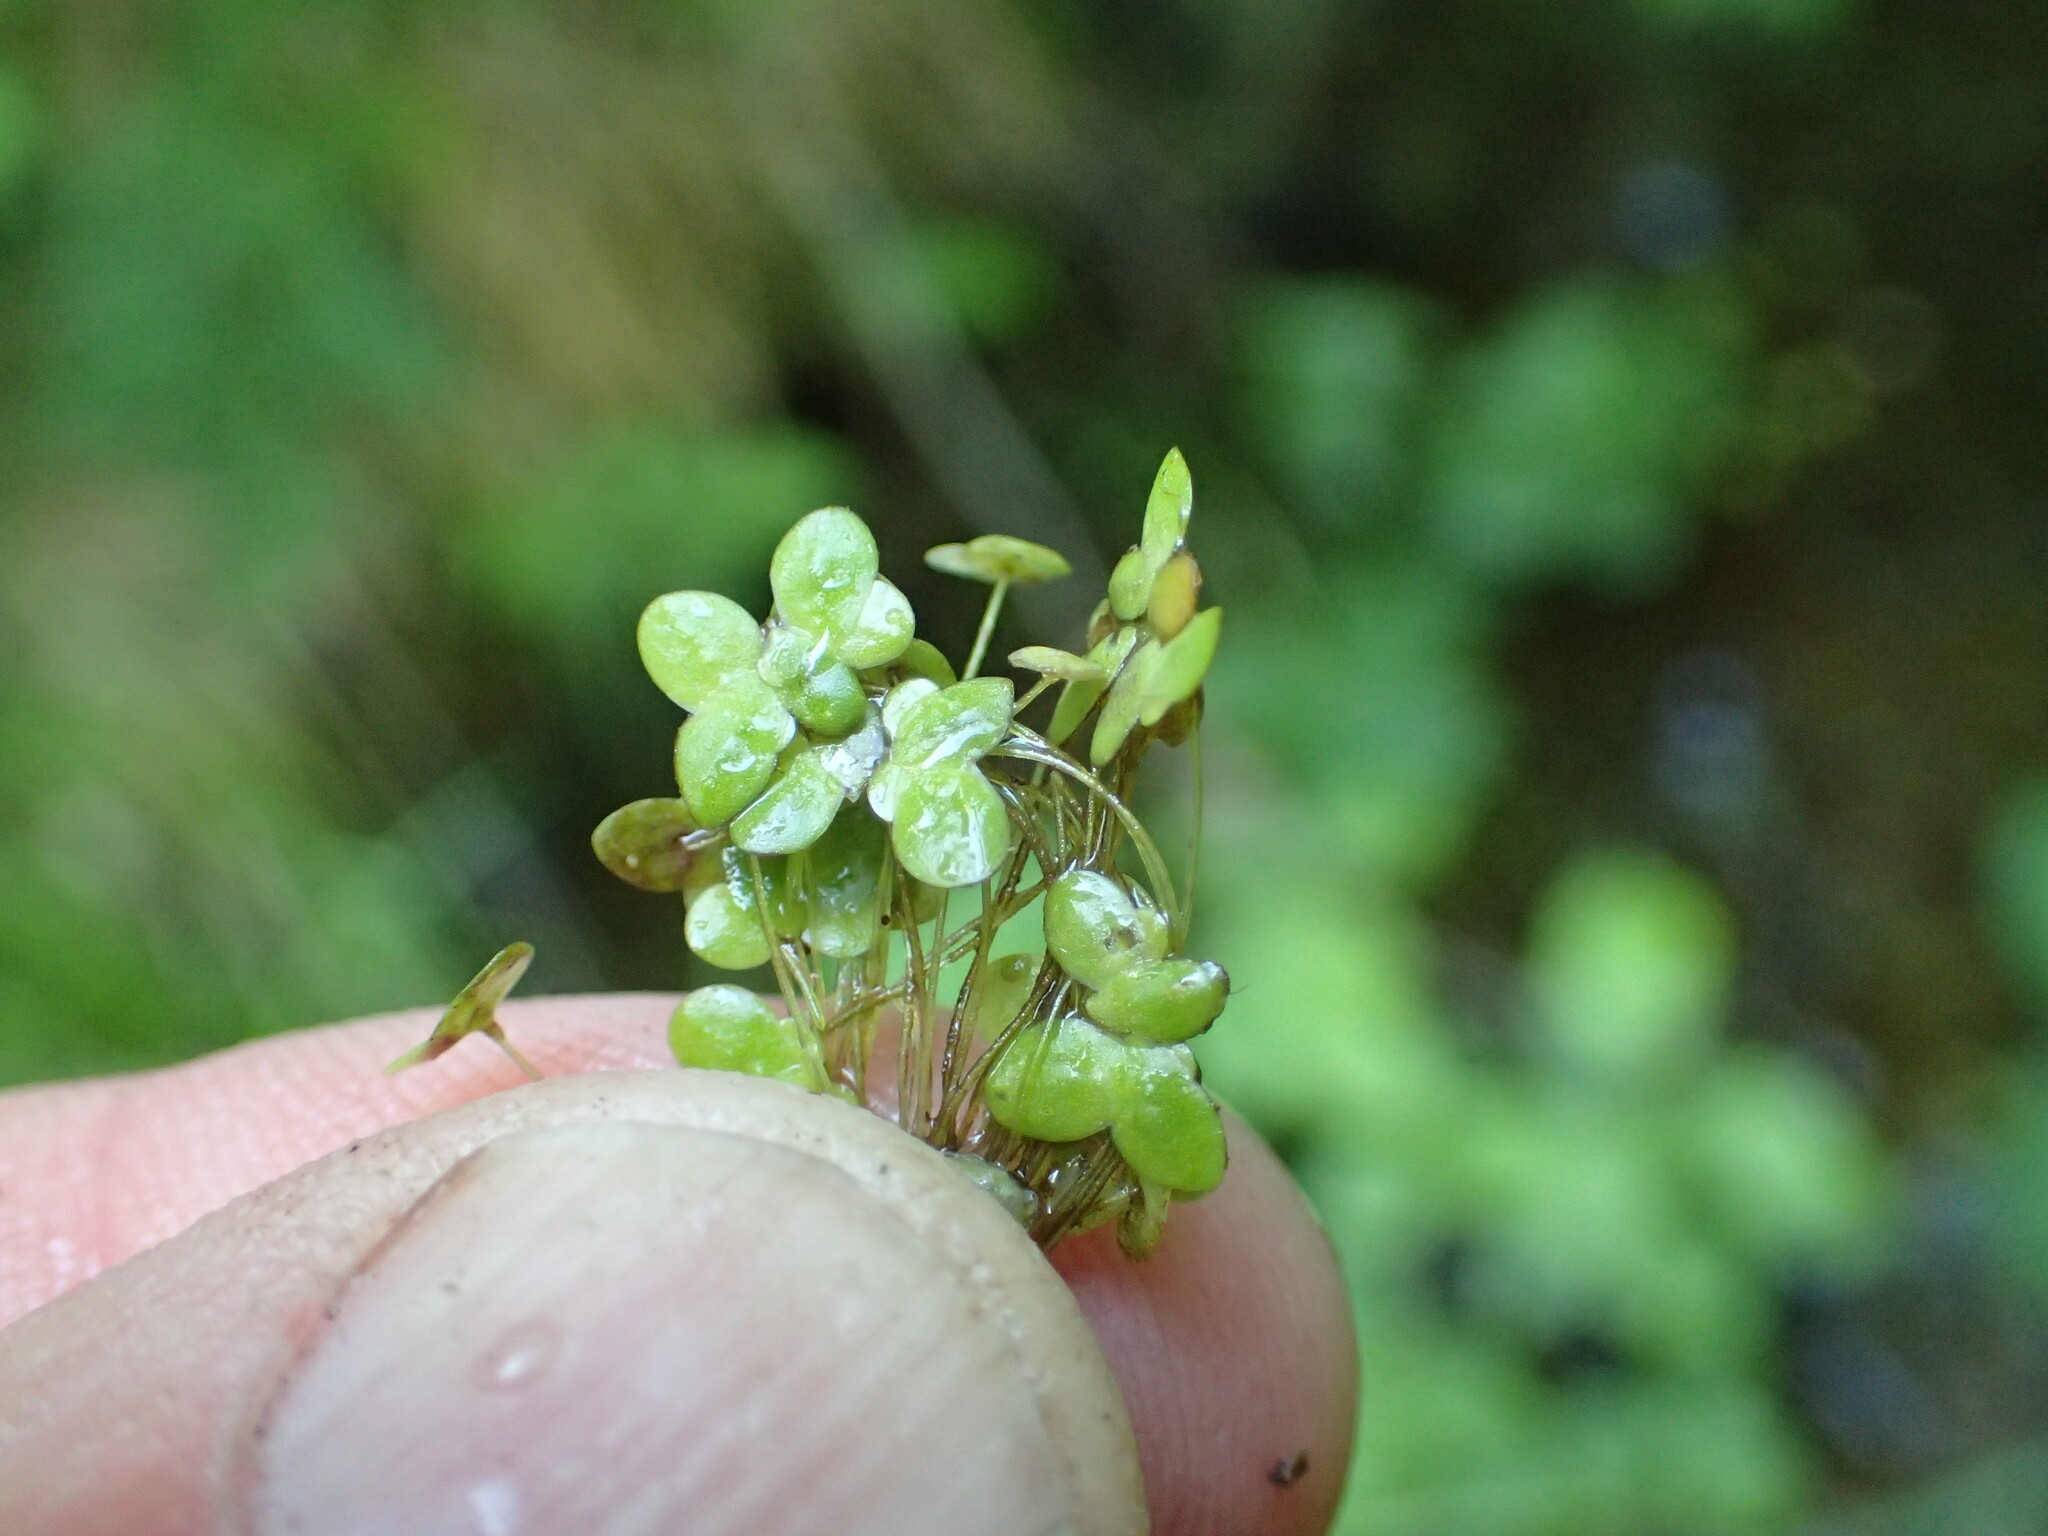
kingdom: Plantae
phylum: Tracheophyta
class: Liliopsida
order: Alismatales
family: Araceae
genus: Lemna
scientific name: Lemna minor
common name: Common duckweed
